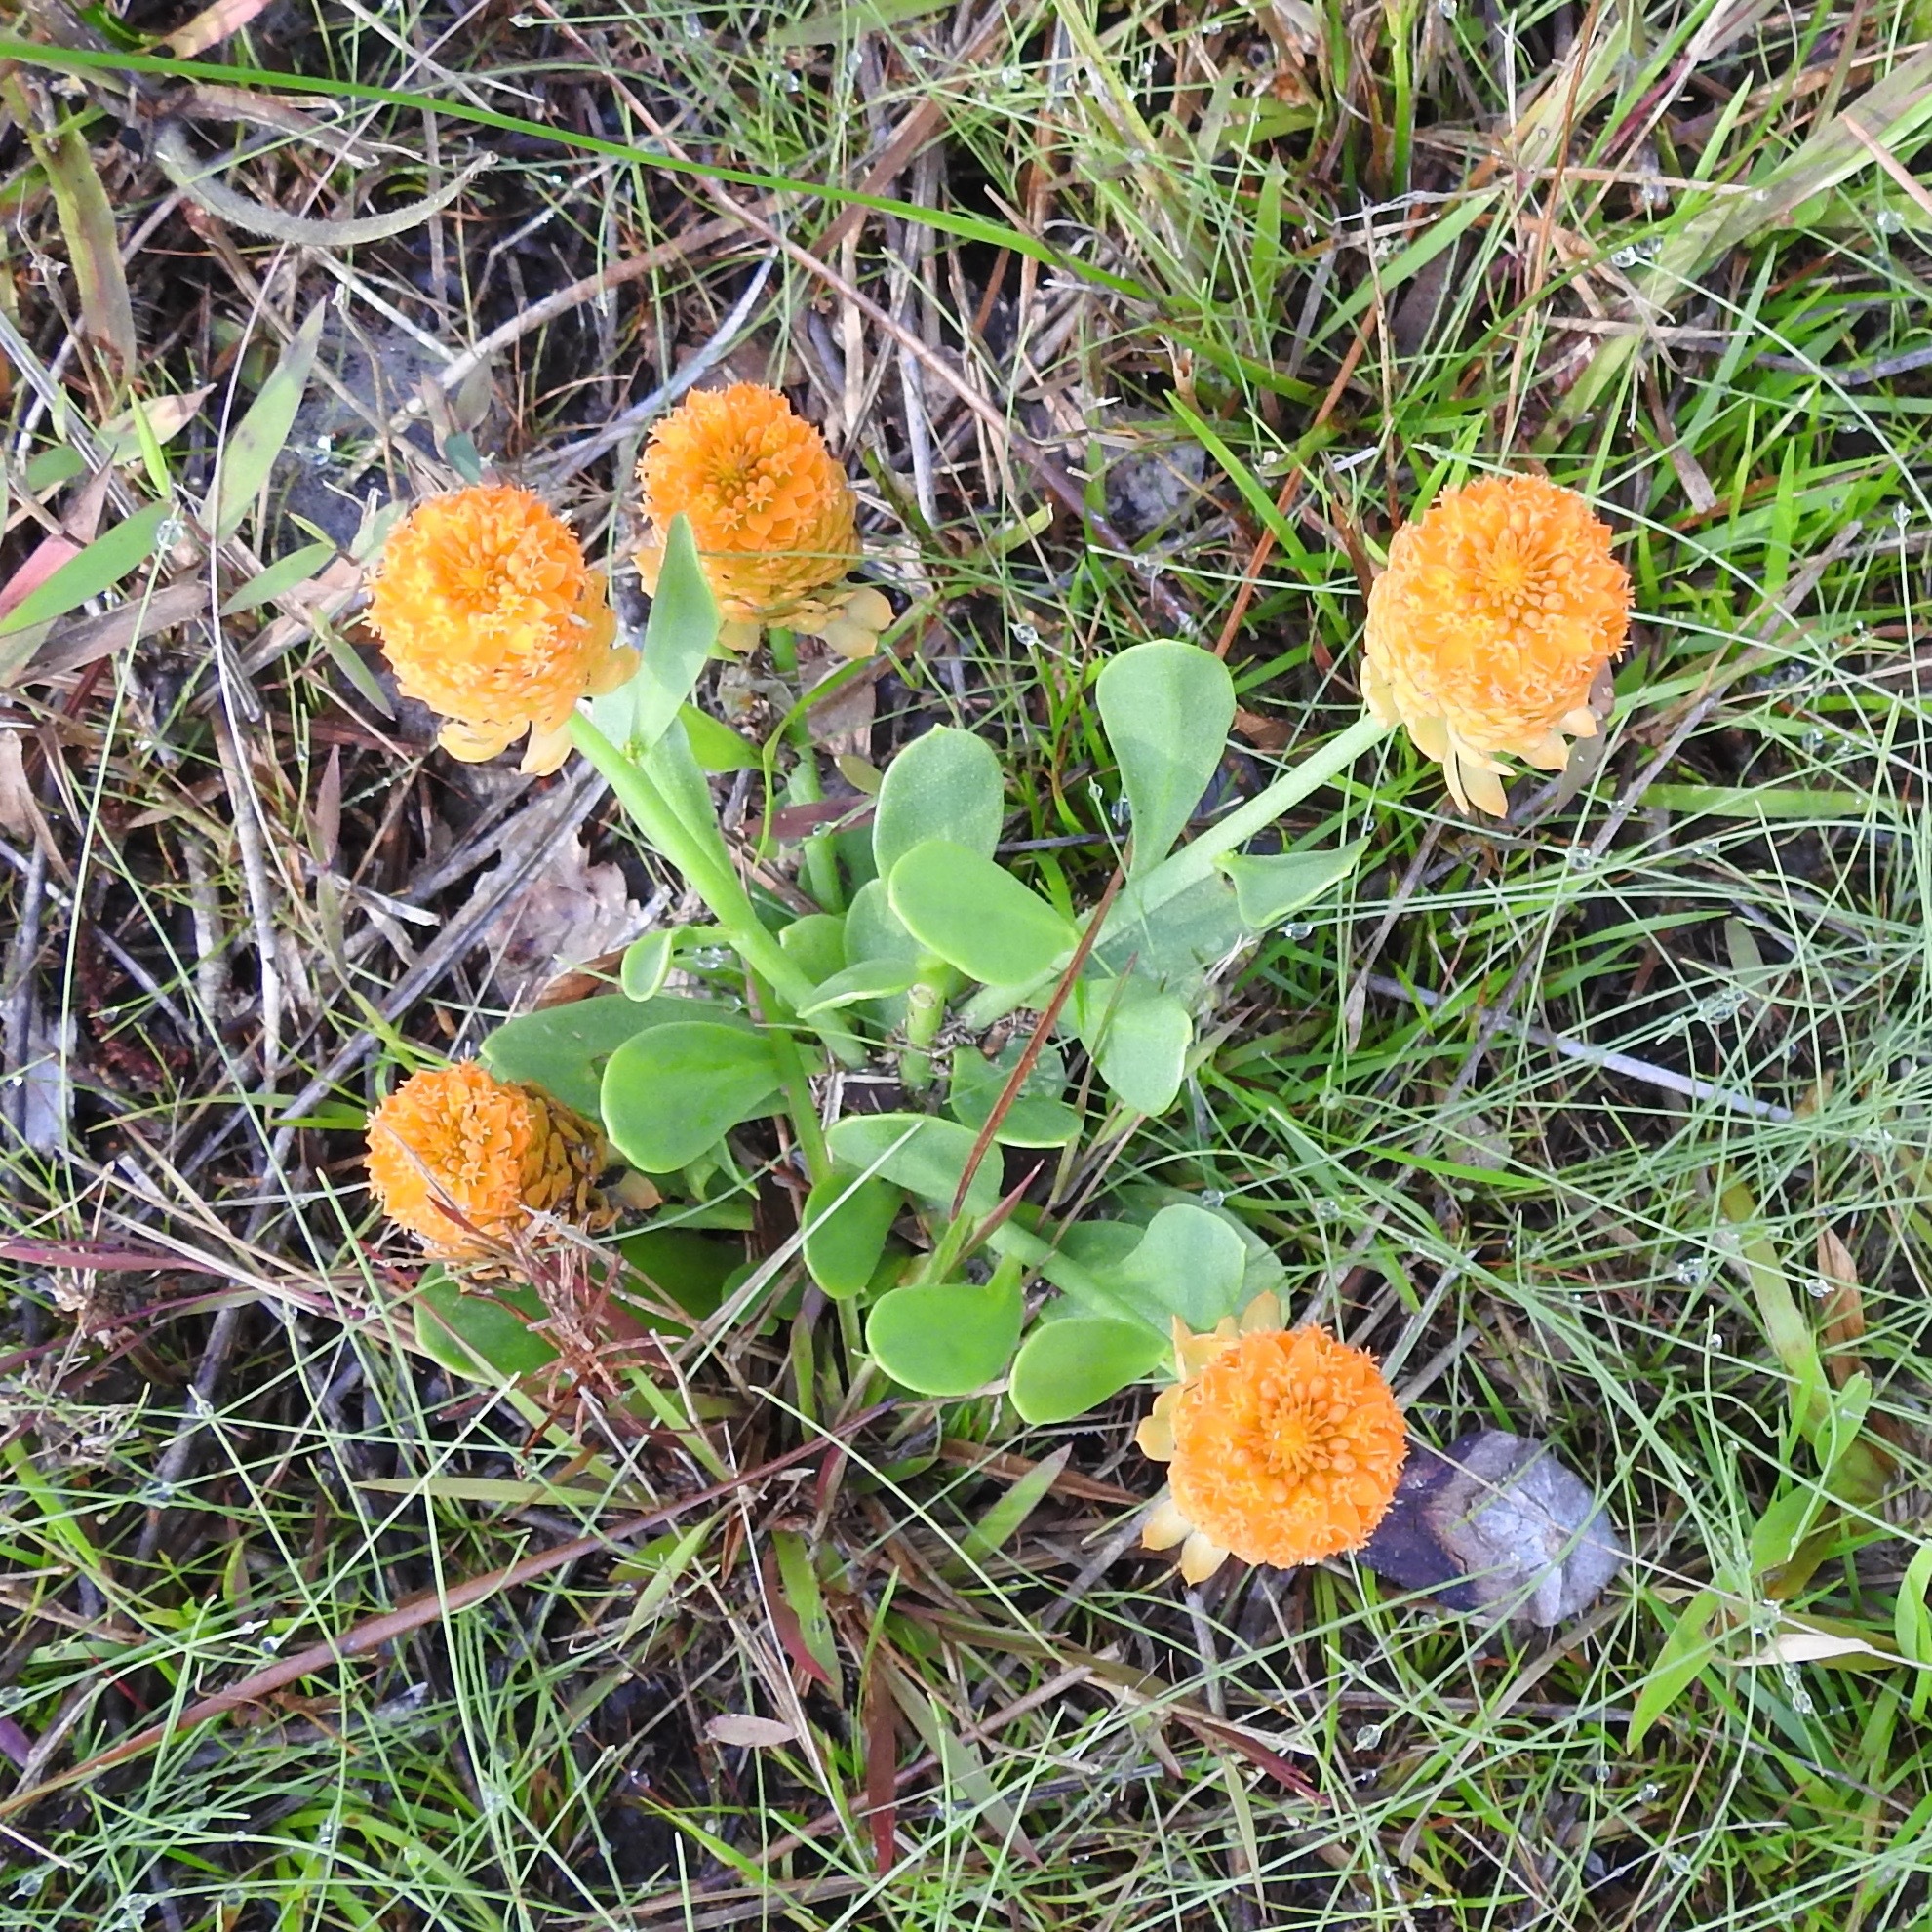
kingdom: Plantae
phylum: Tracheophyta
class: Magnoliopsida
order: Fabales
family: Polygalaceae
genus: Polygala
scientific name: Polygala lutea
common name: Orange milkwort
